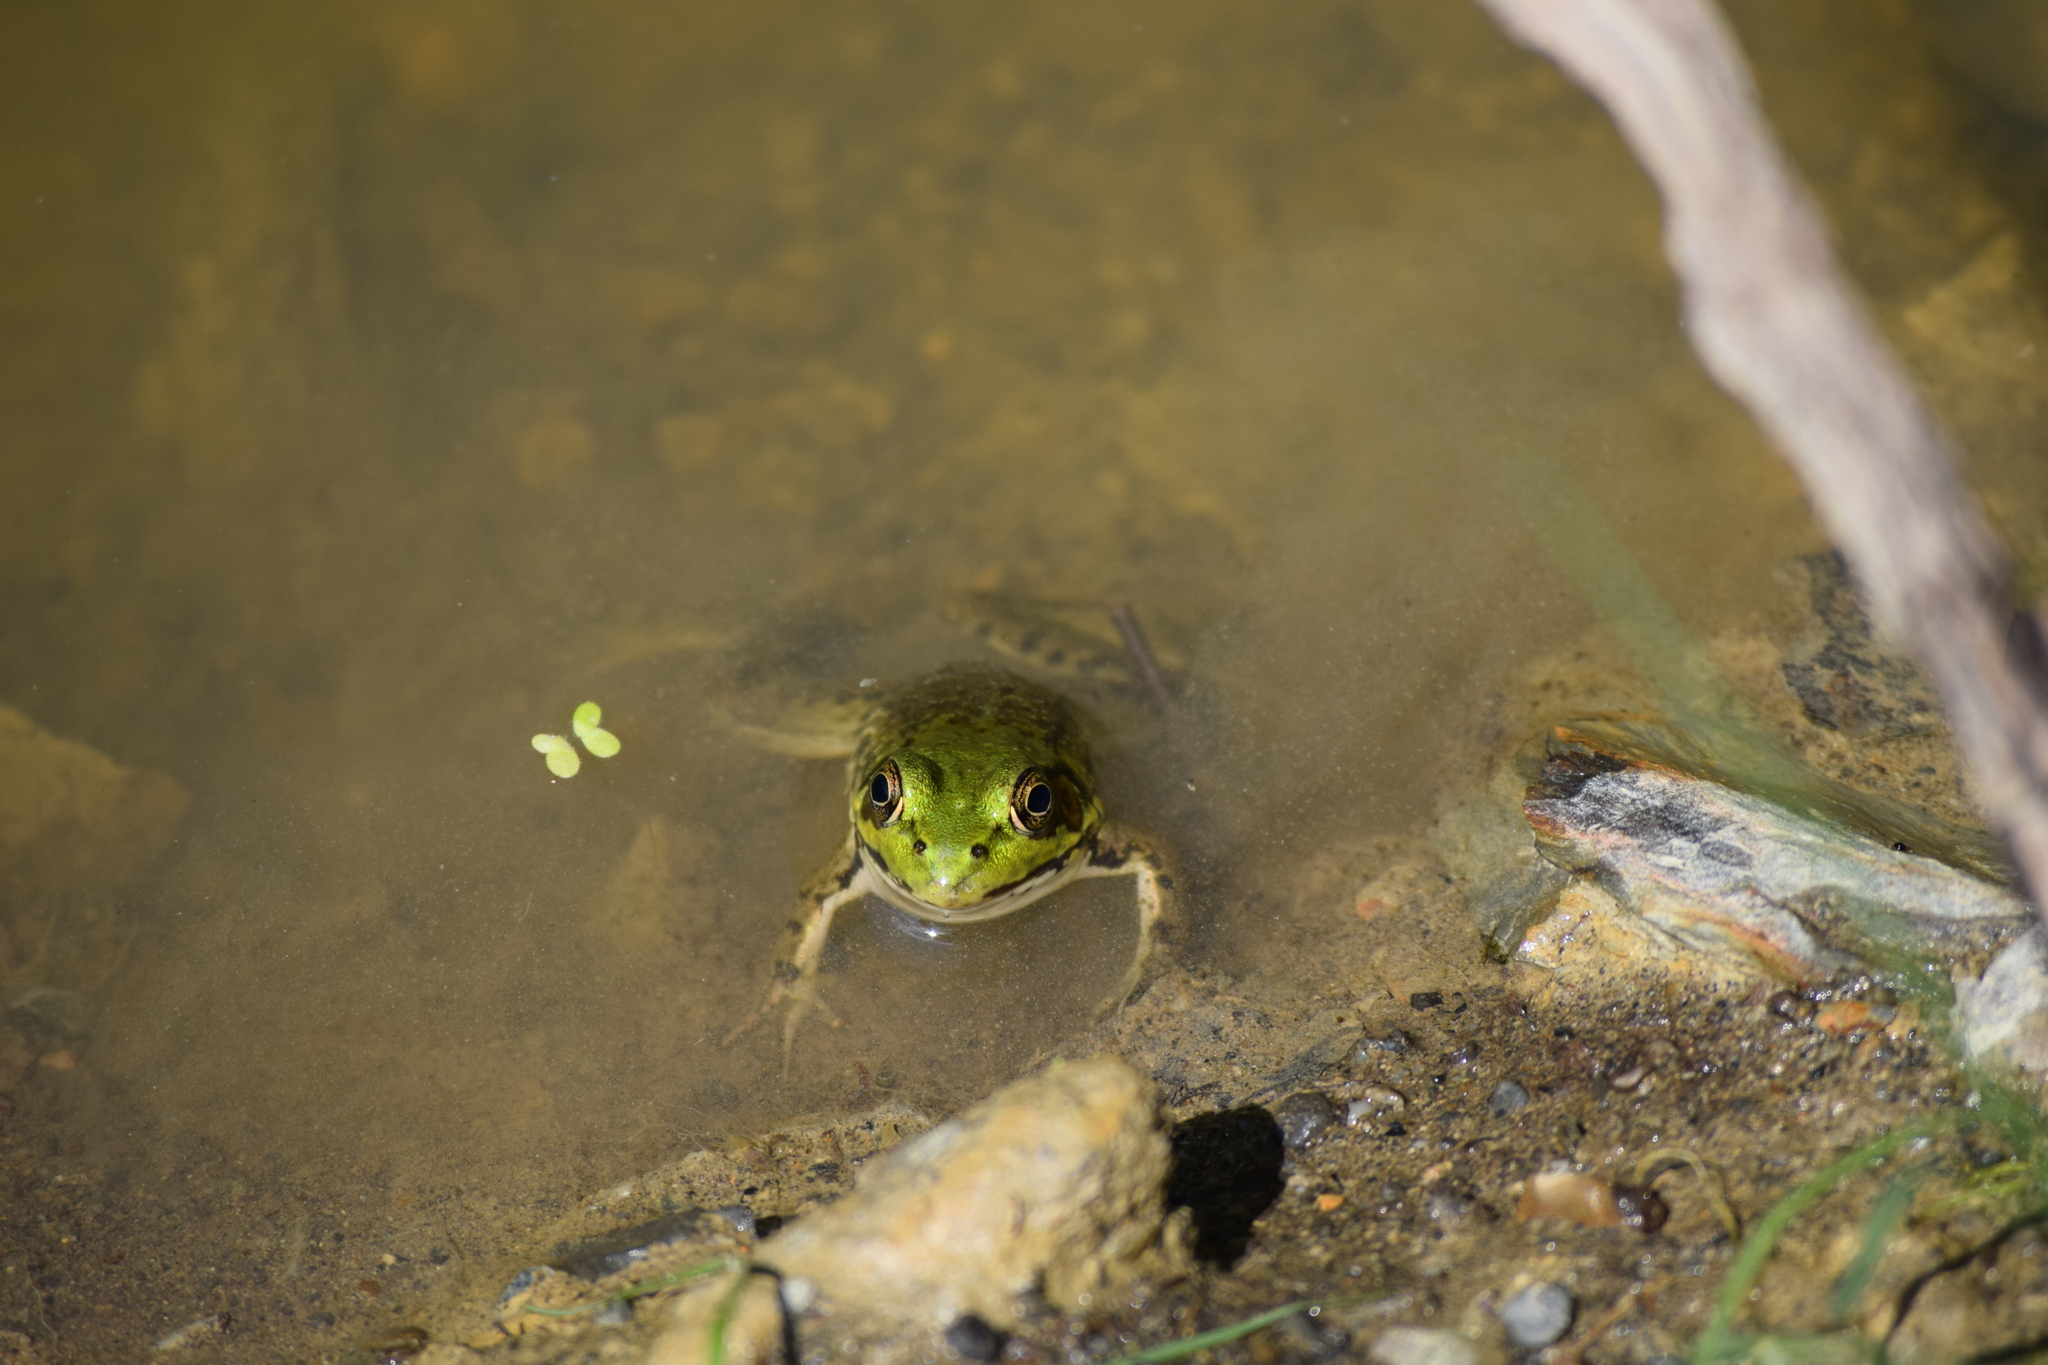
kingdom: Animalia
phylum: Chordata
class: Amphibia
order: Anura
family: Ranidae
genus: Lithobates
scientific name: Lithobates clamitans
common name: Green frog
